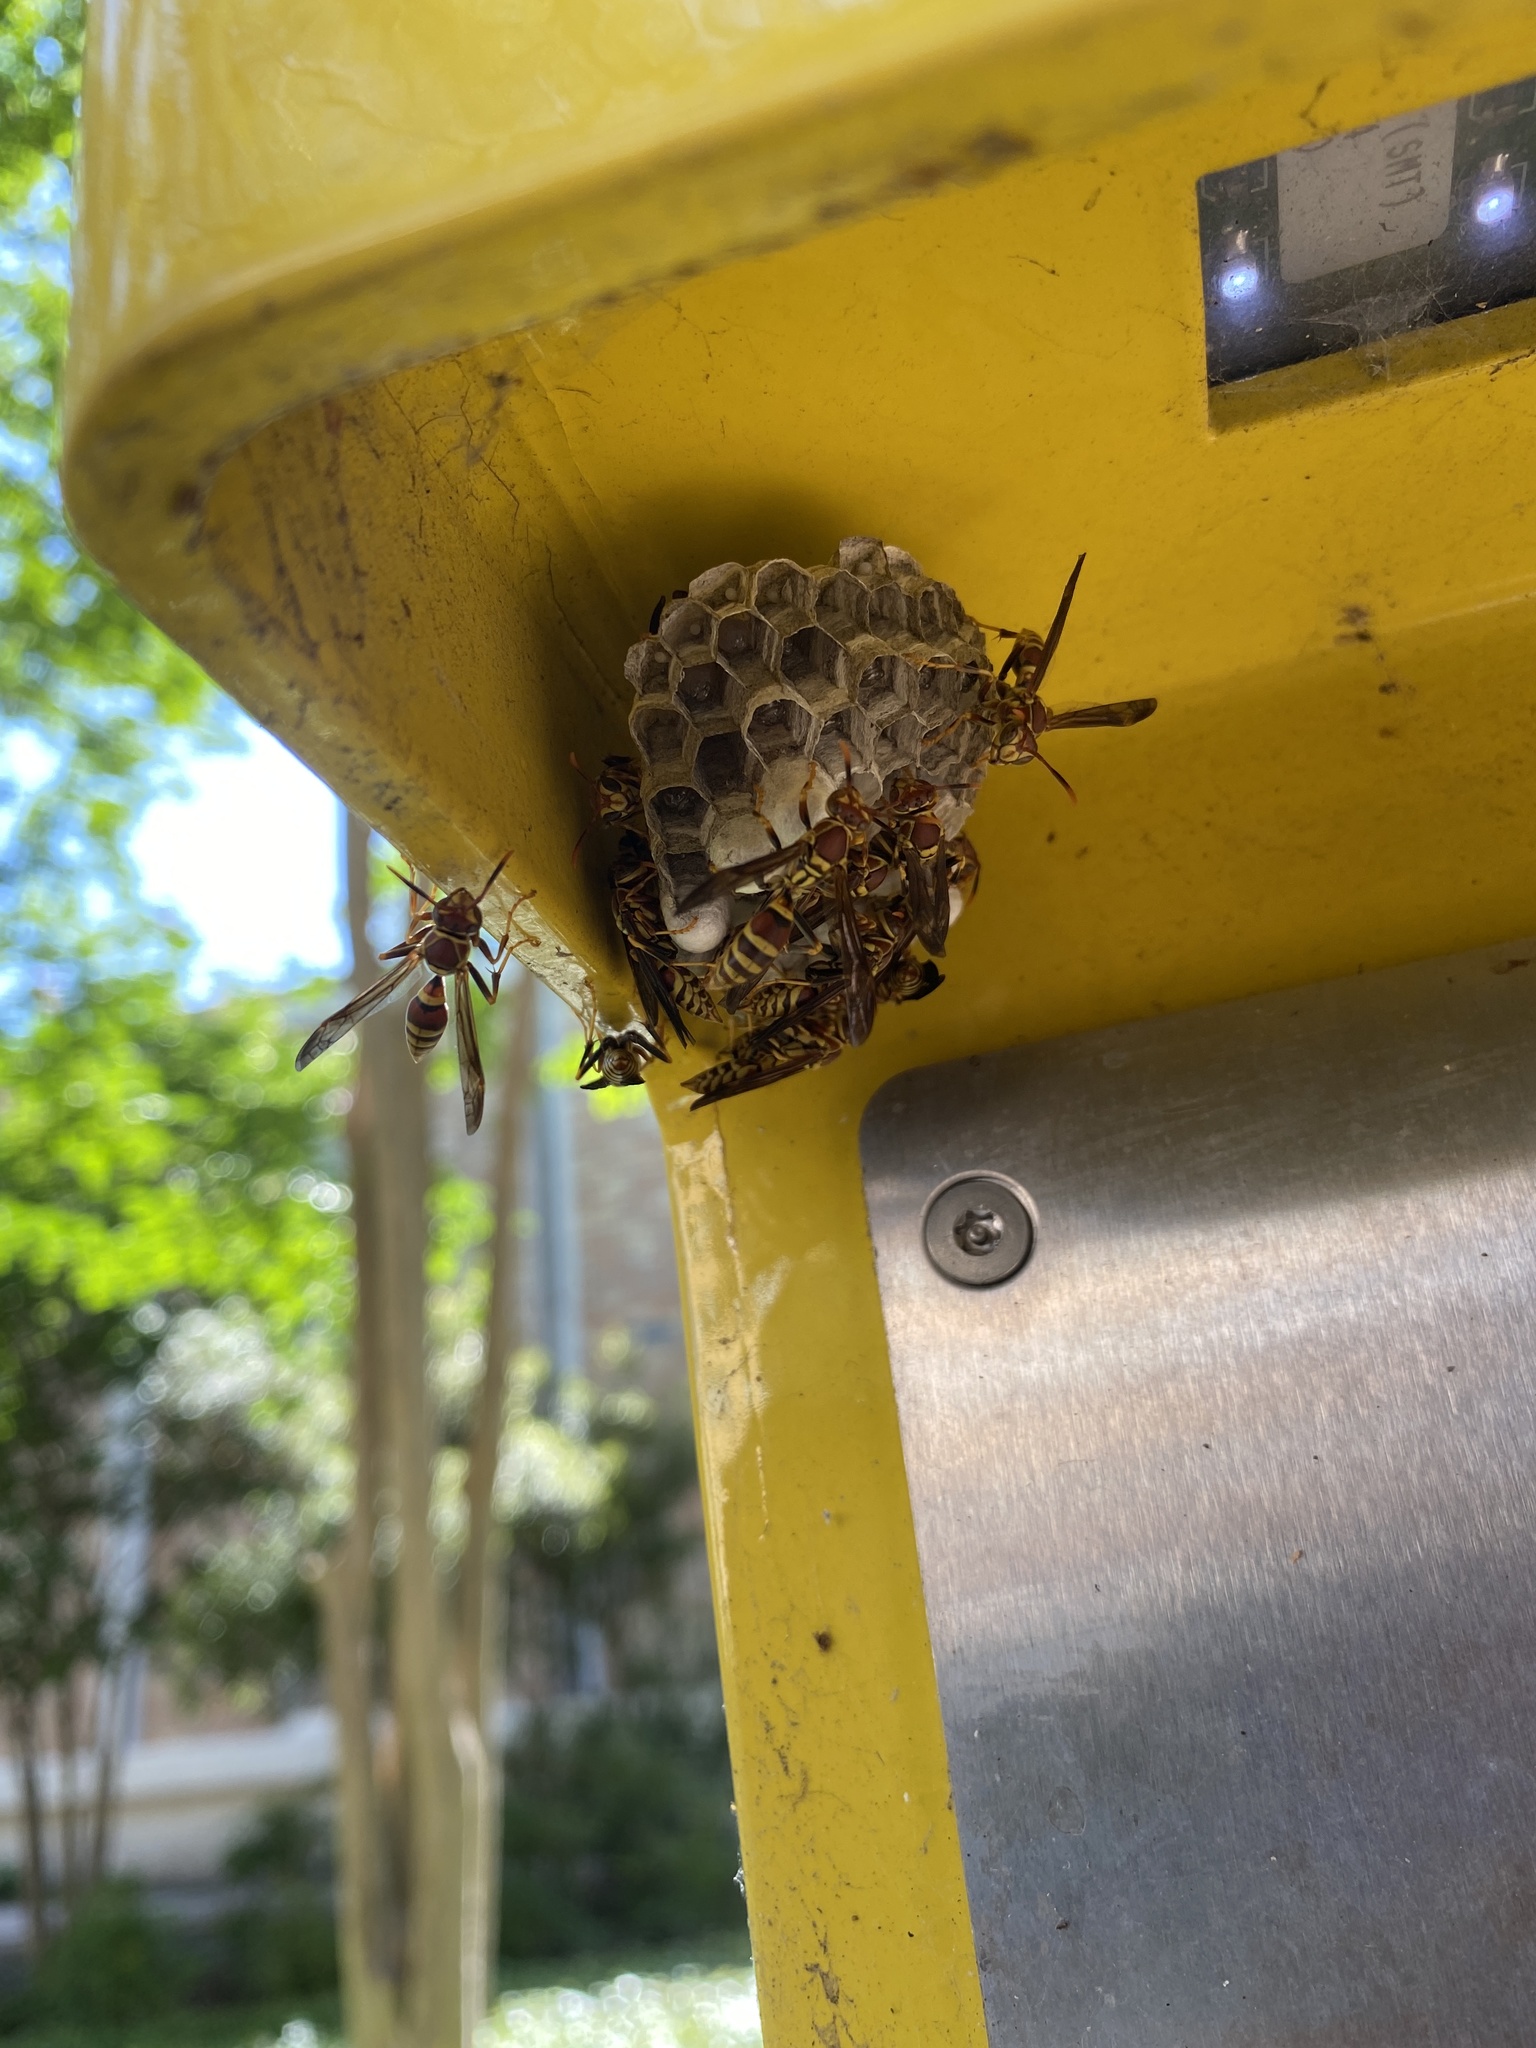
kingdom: Animalia
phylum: Arthropoda
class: Insecta
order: Hymenoptera
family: Eumenidae
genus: Polistes
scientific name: Polistes exclamans
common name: Paper wasp
